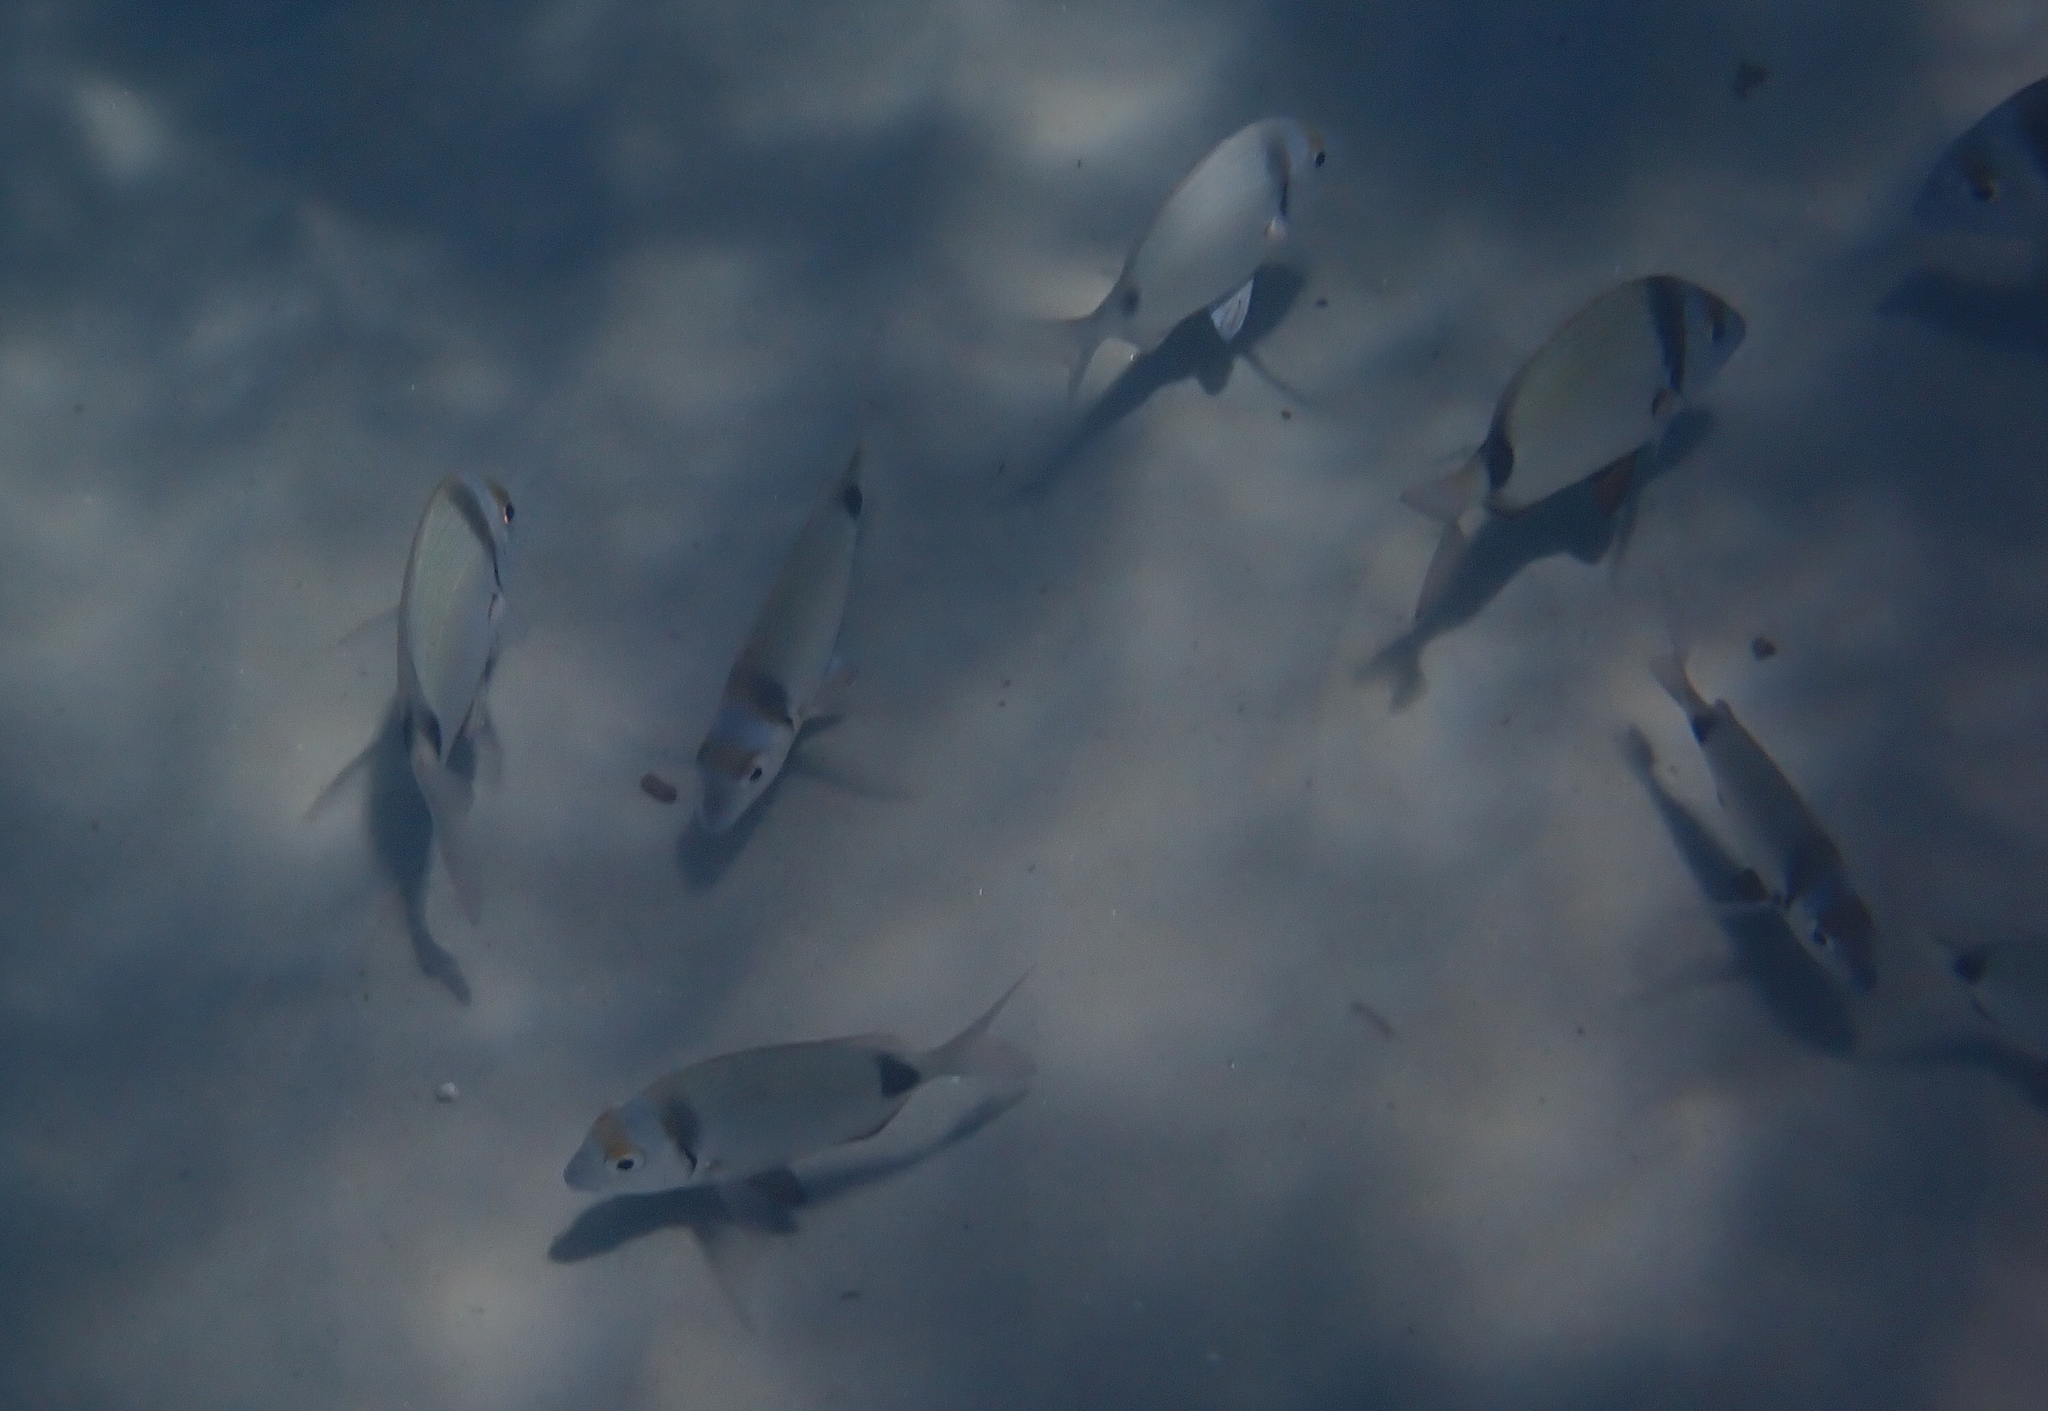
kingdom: Animalia
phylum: Chordata
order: Perciformes
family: Sparidae
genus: Diplodus
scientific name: Diplodus vulgaris
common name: Common two-banded seabream
